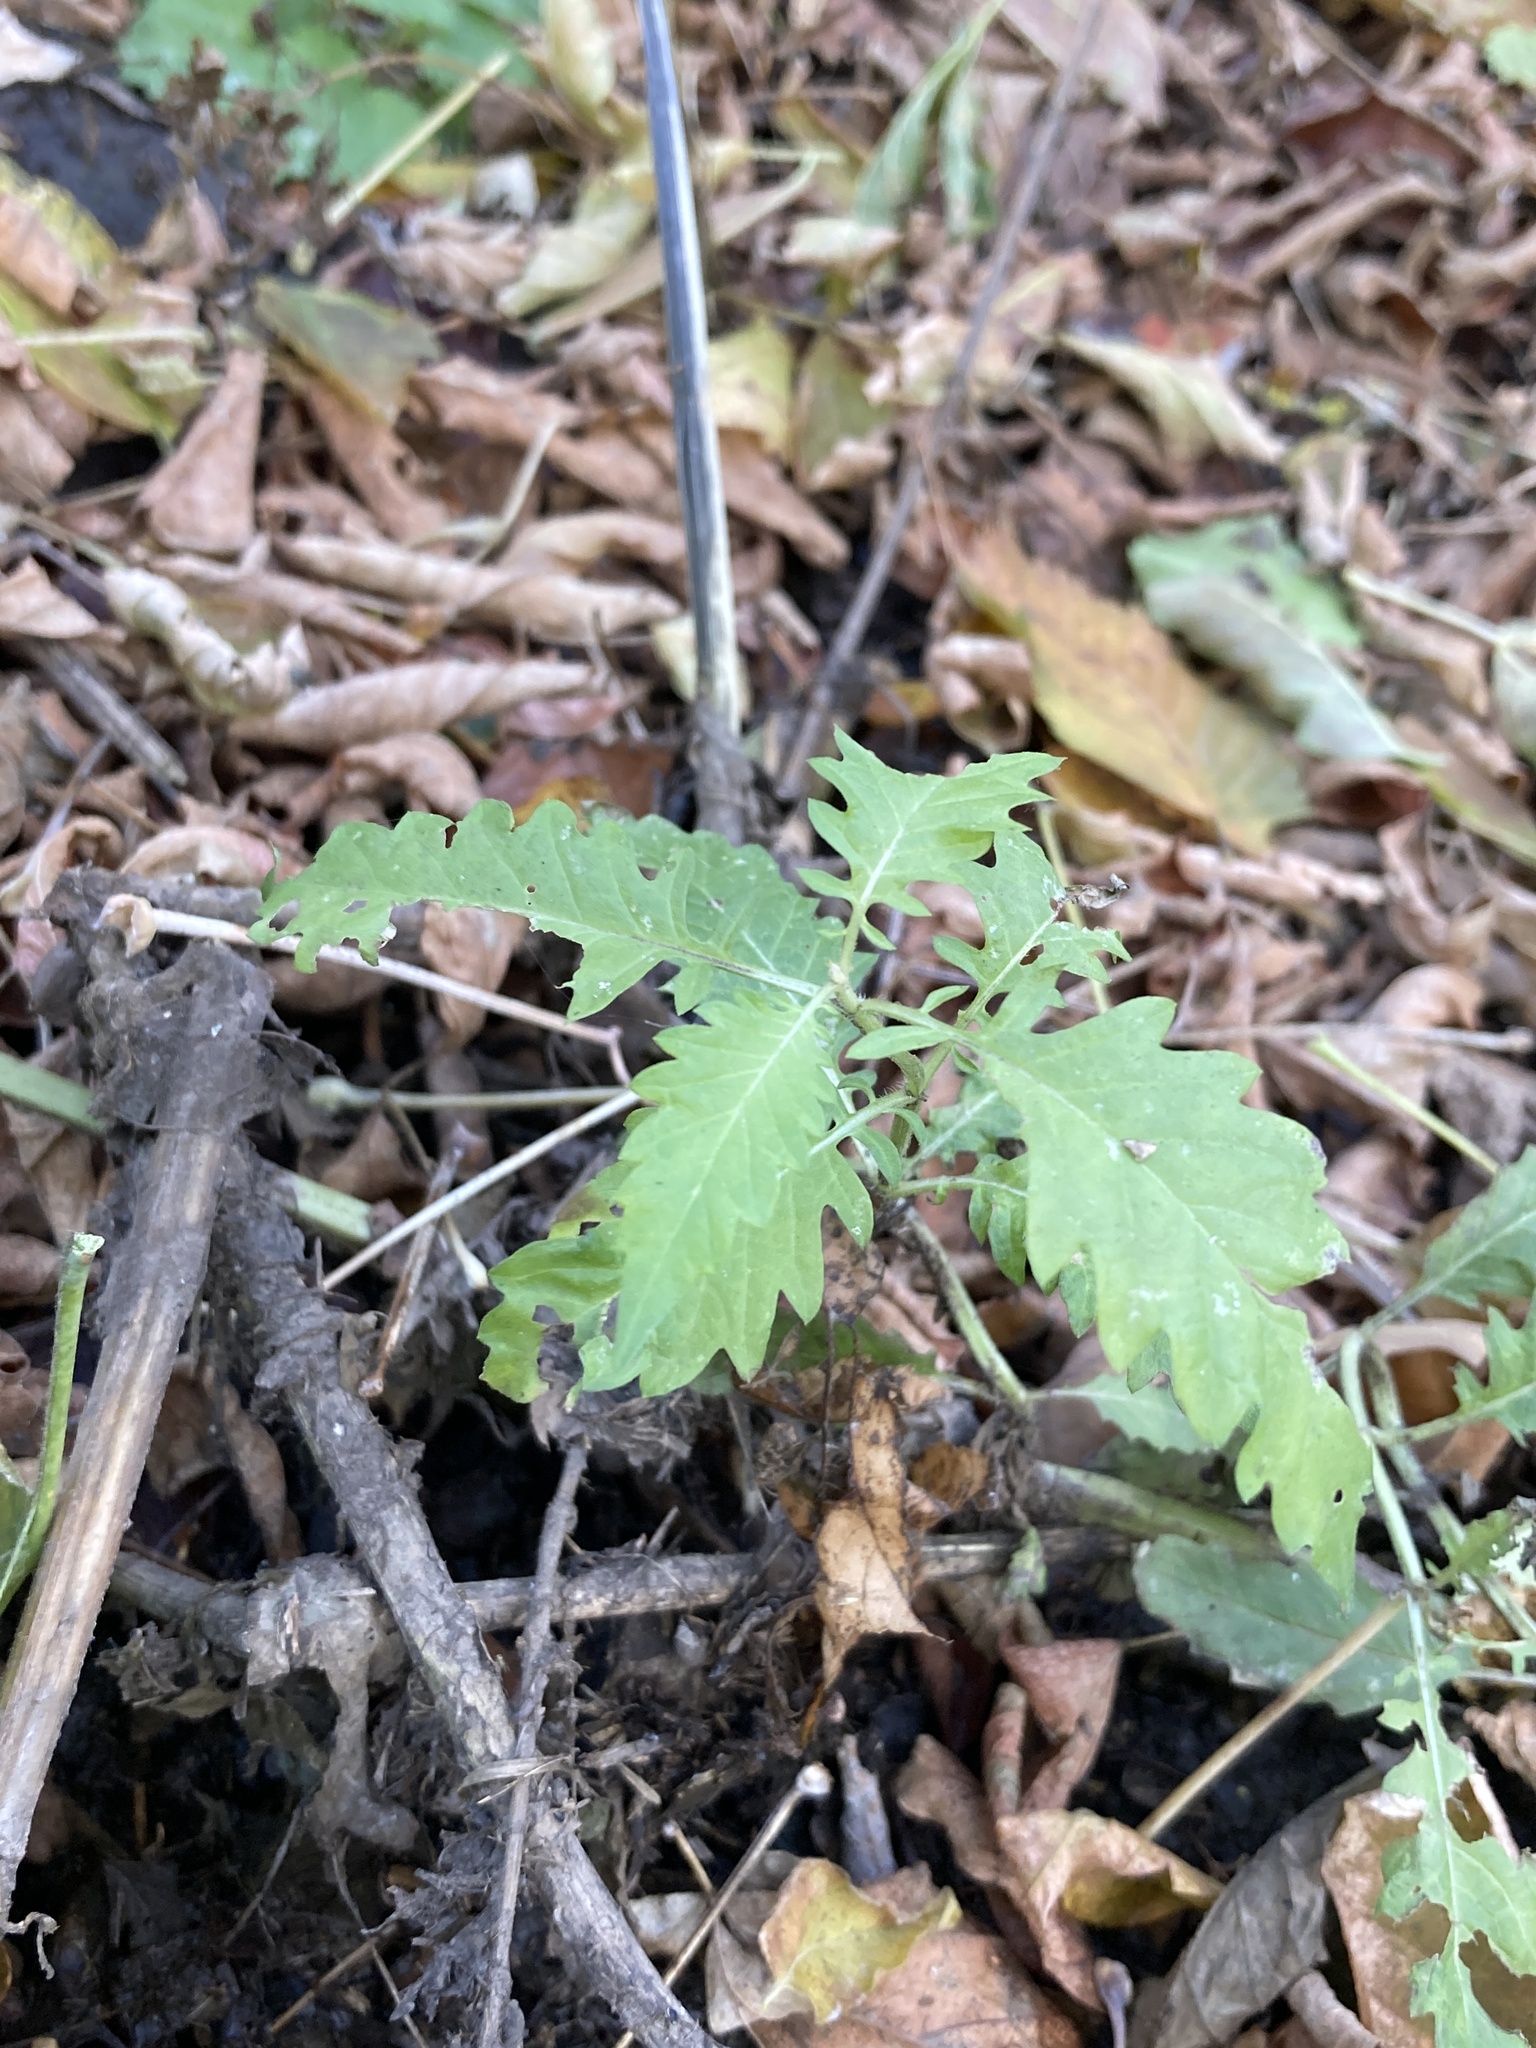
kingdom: Plantae
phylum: Tracheophyta
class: Magnoliopsida
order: Lamiales
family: Lamiaceae
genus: Lycopus
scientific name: Lycopus europaeus
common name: European bugleweed
